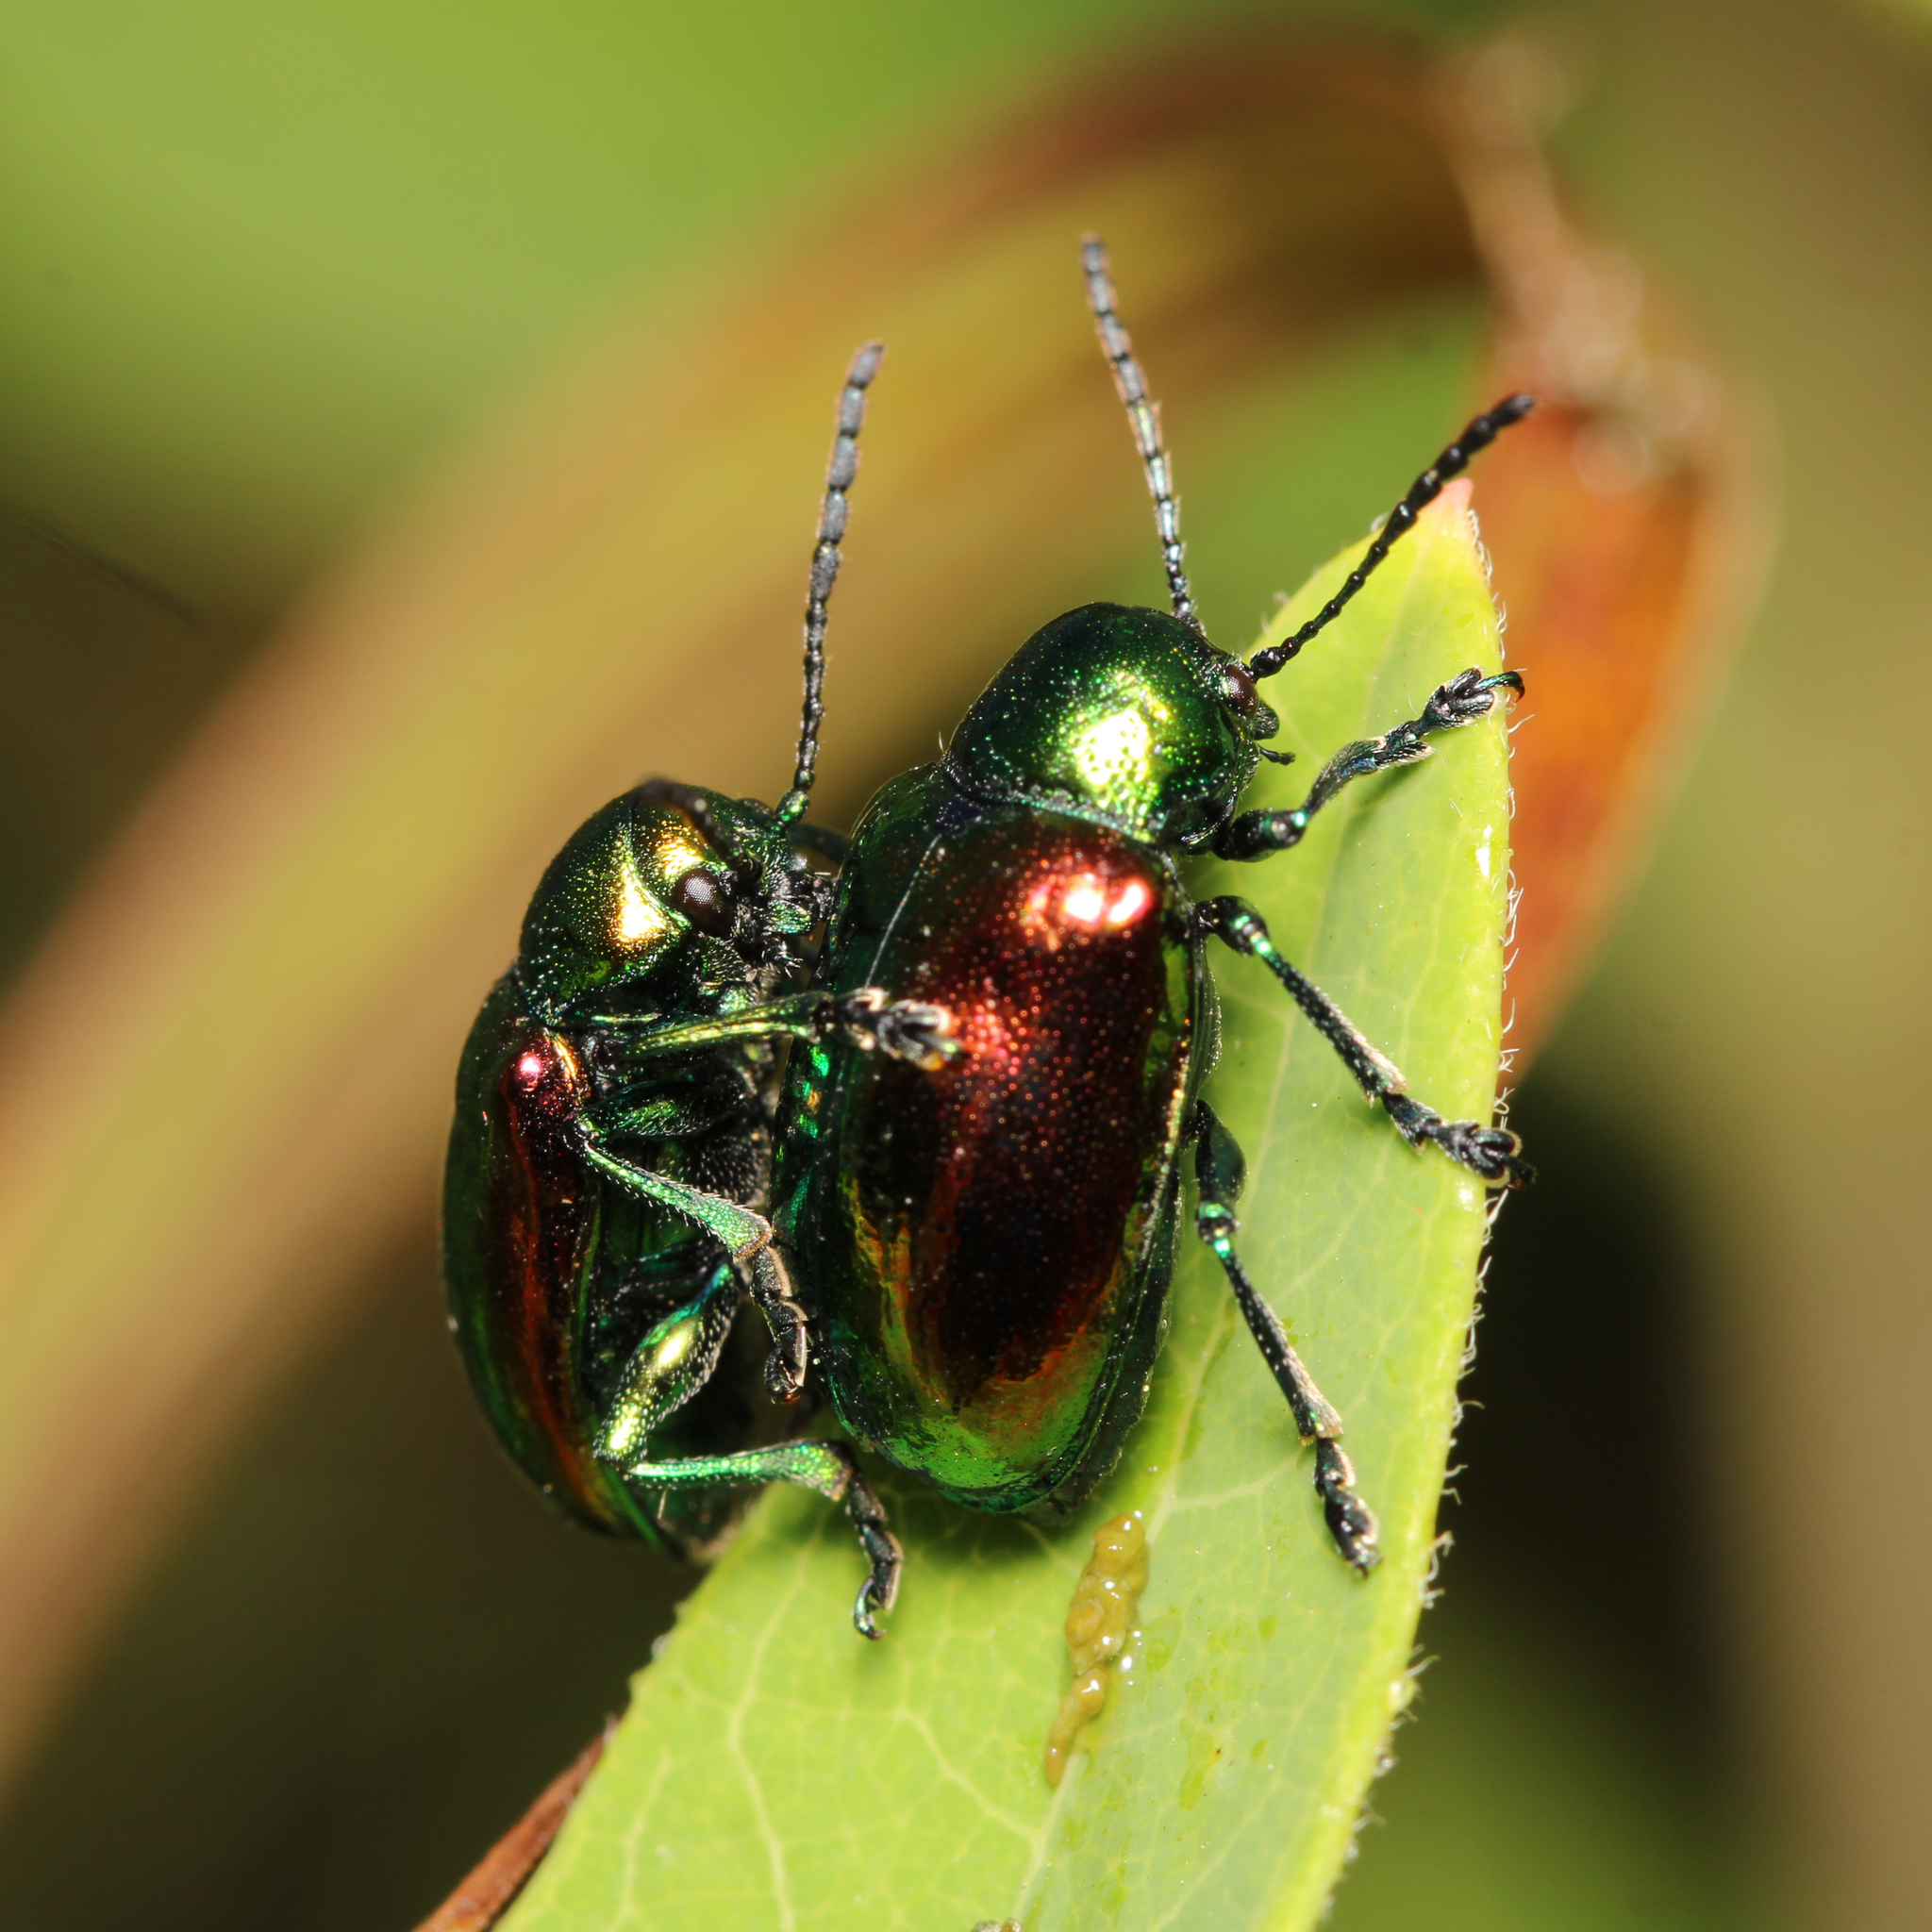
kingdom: Animalia
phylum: Arthropoda
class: Insecta
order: Coleoptera
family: Chrysomelidae
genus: Chrysochus
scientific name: Chrysochus auratus
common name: Dogbane leaf beetle
